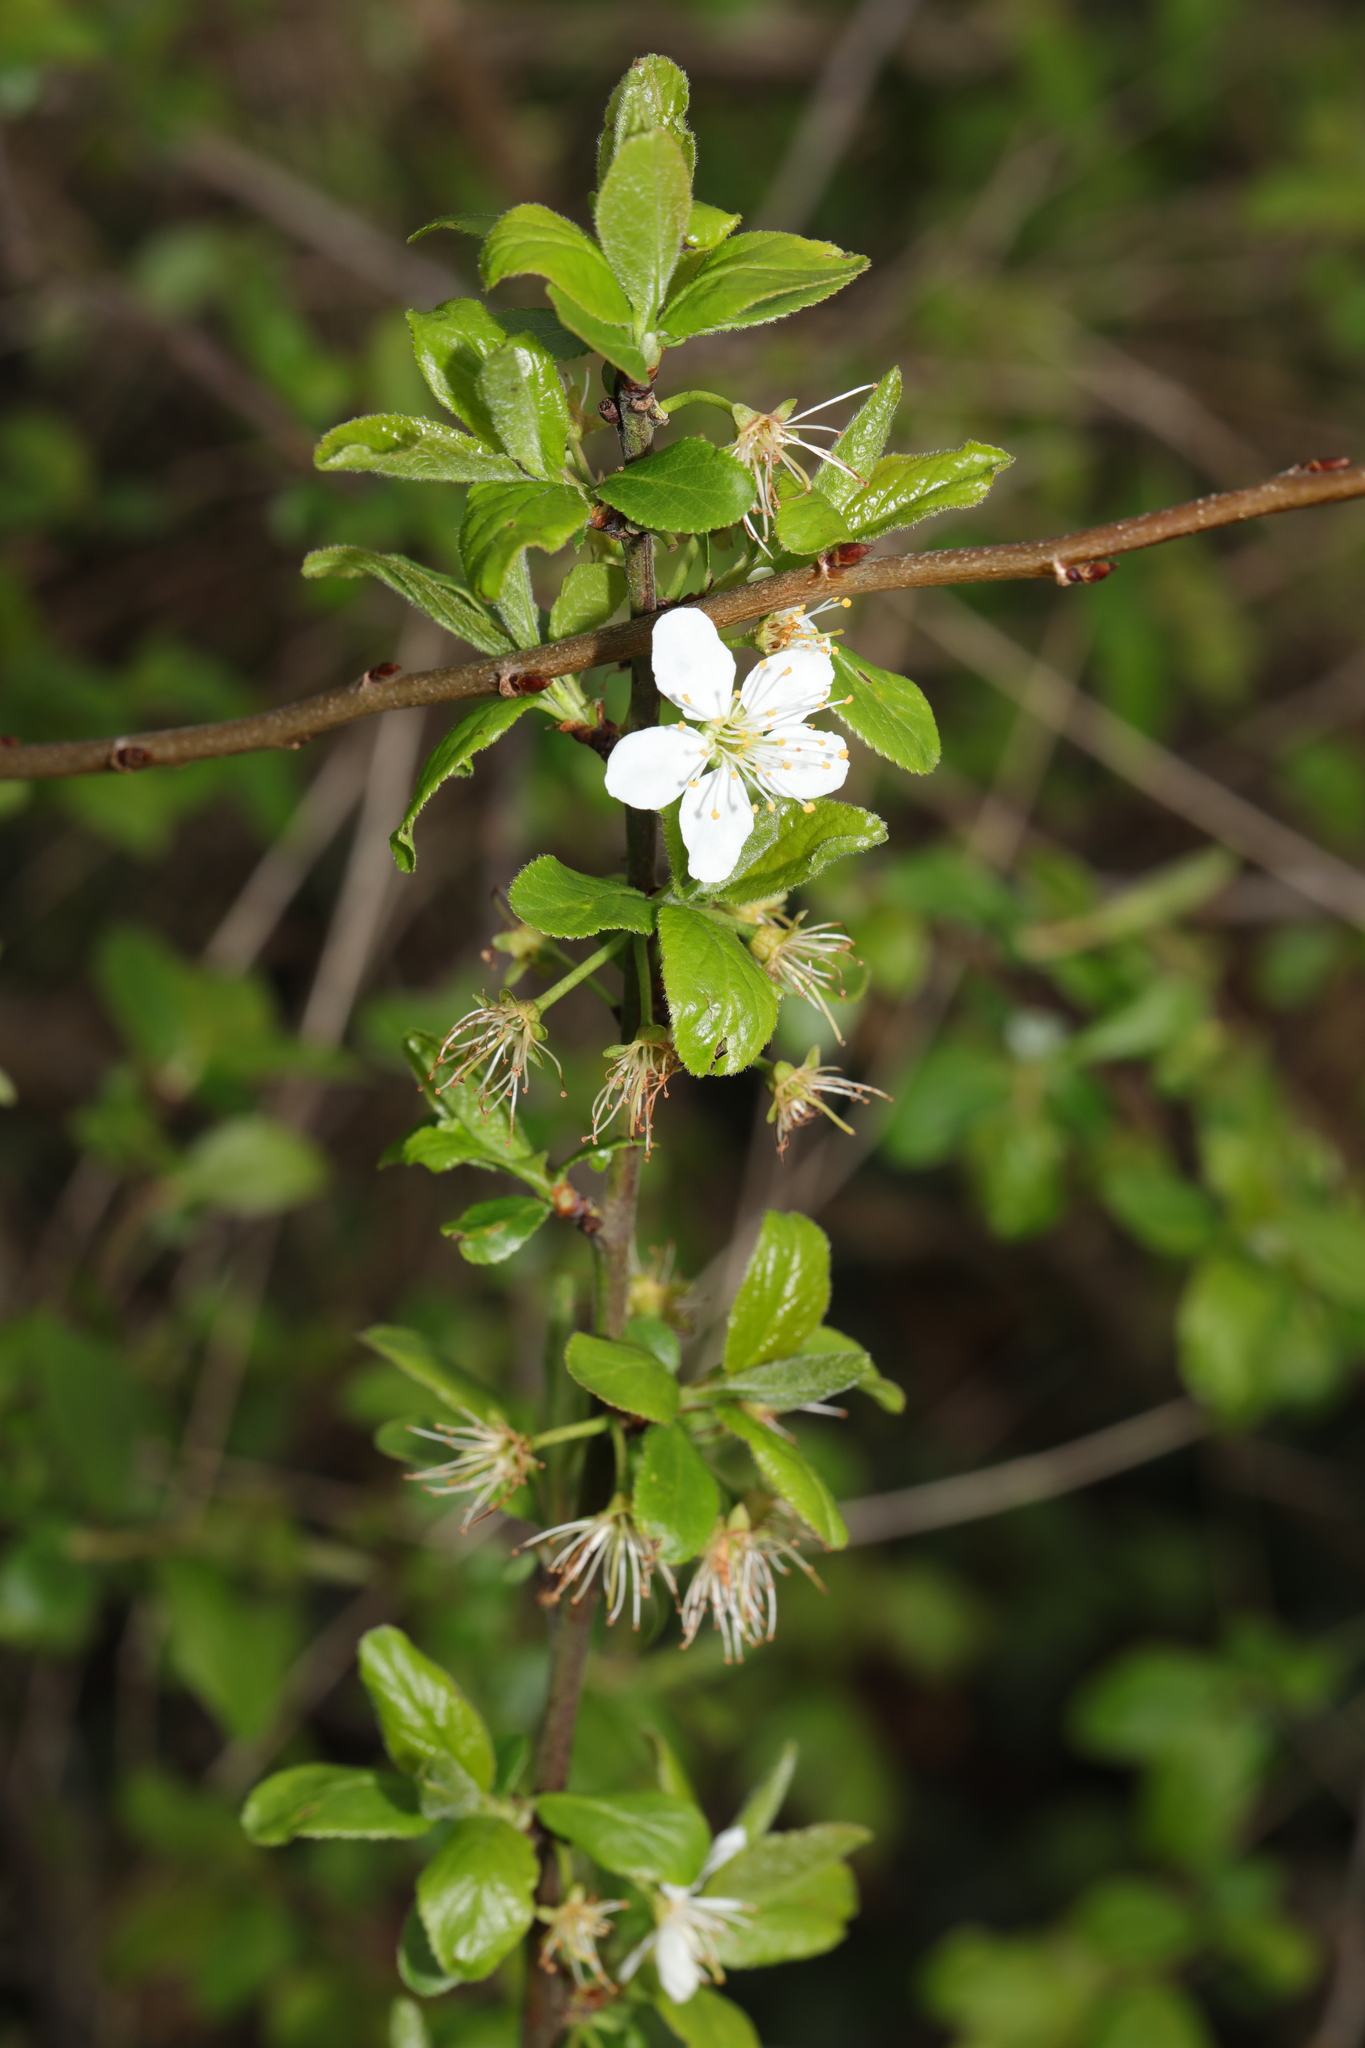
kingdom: Plantae
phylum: Tracheophyta
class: Magnoliopsida
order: Rosales
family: Rosaceae
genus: Prunus
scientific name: Prunus cerasifera
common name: Cherry plum
